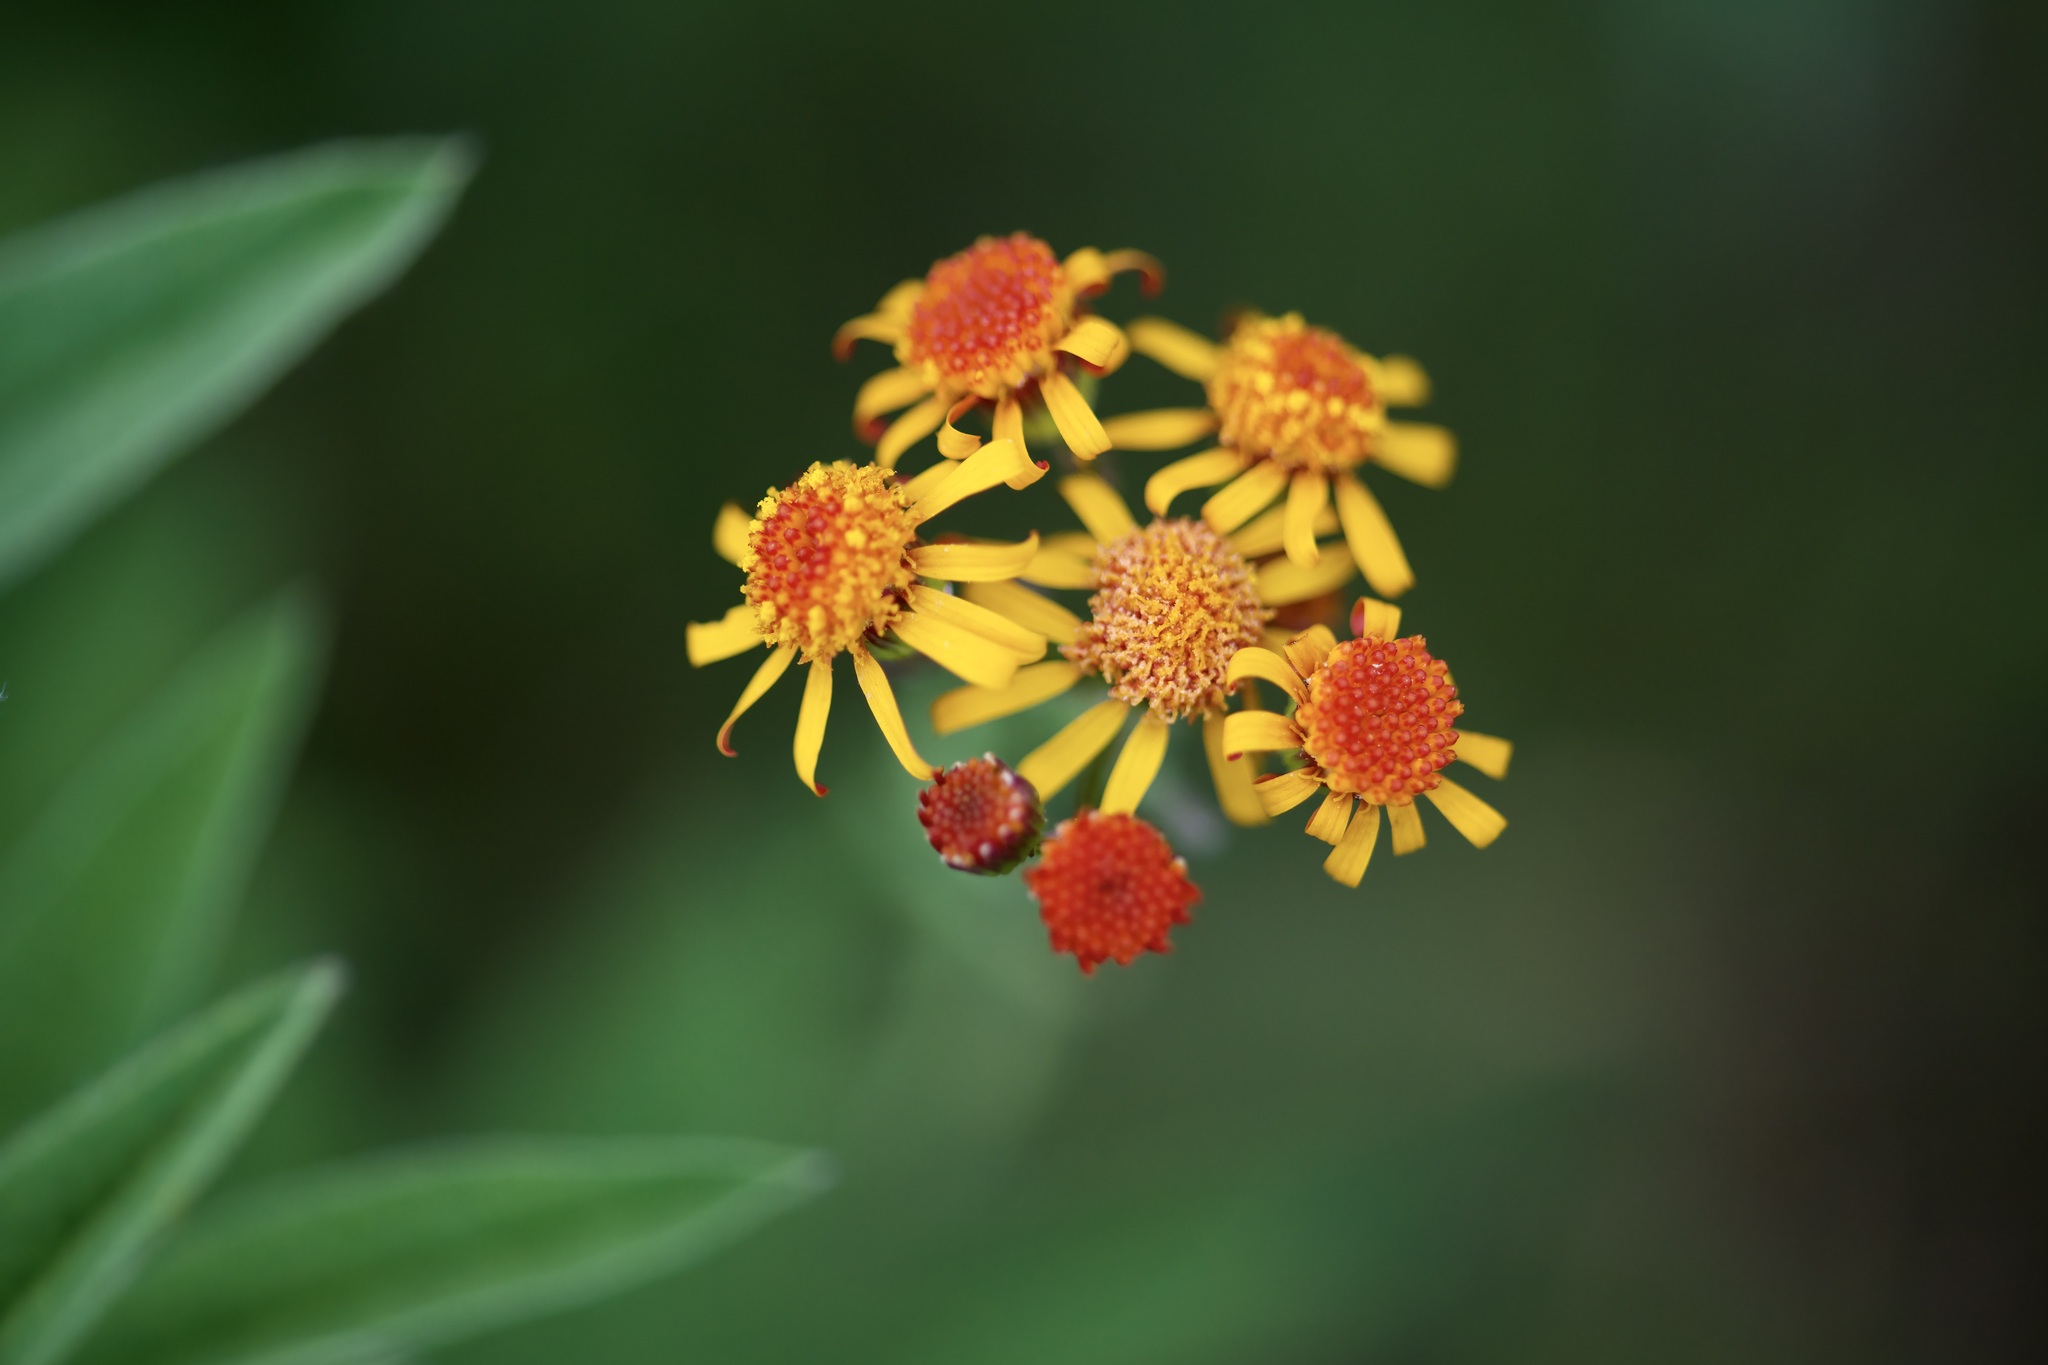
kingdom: Plantae
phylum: Tracheophyta
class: Magnoliopsida
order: Asterales
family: Asteraceae
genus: Packera
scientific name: Packera crocata
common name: Saffron ragwort
